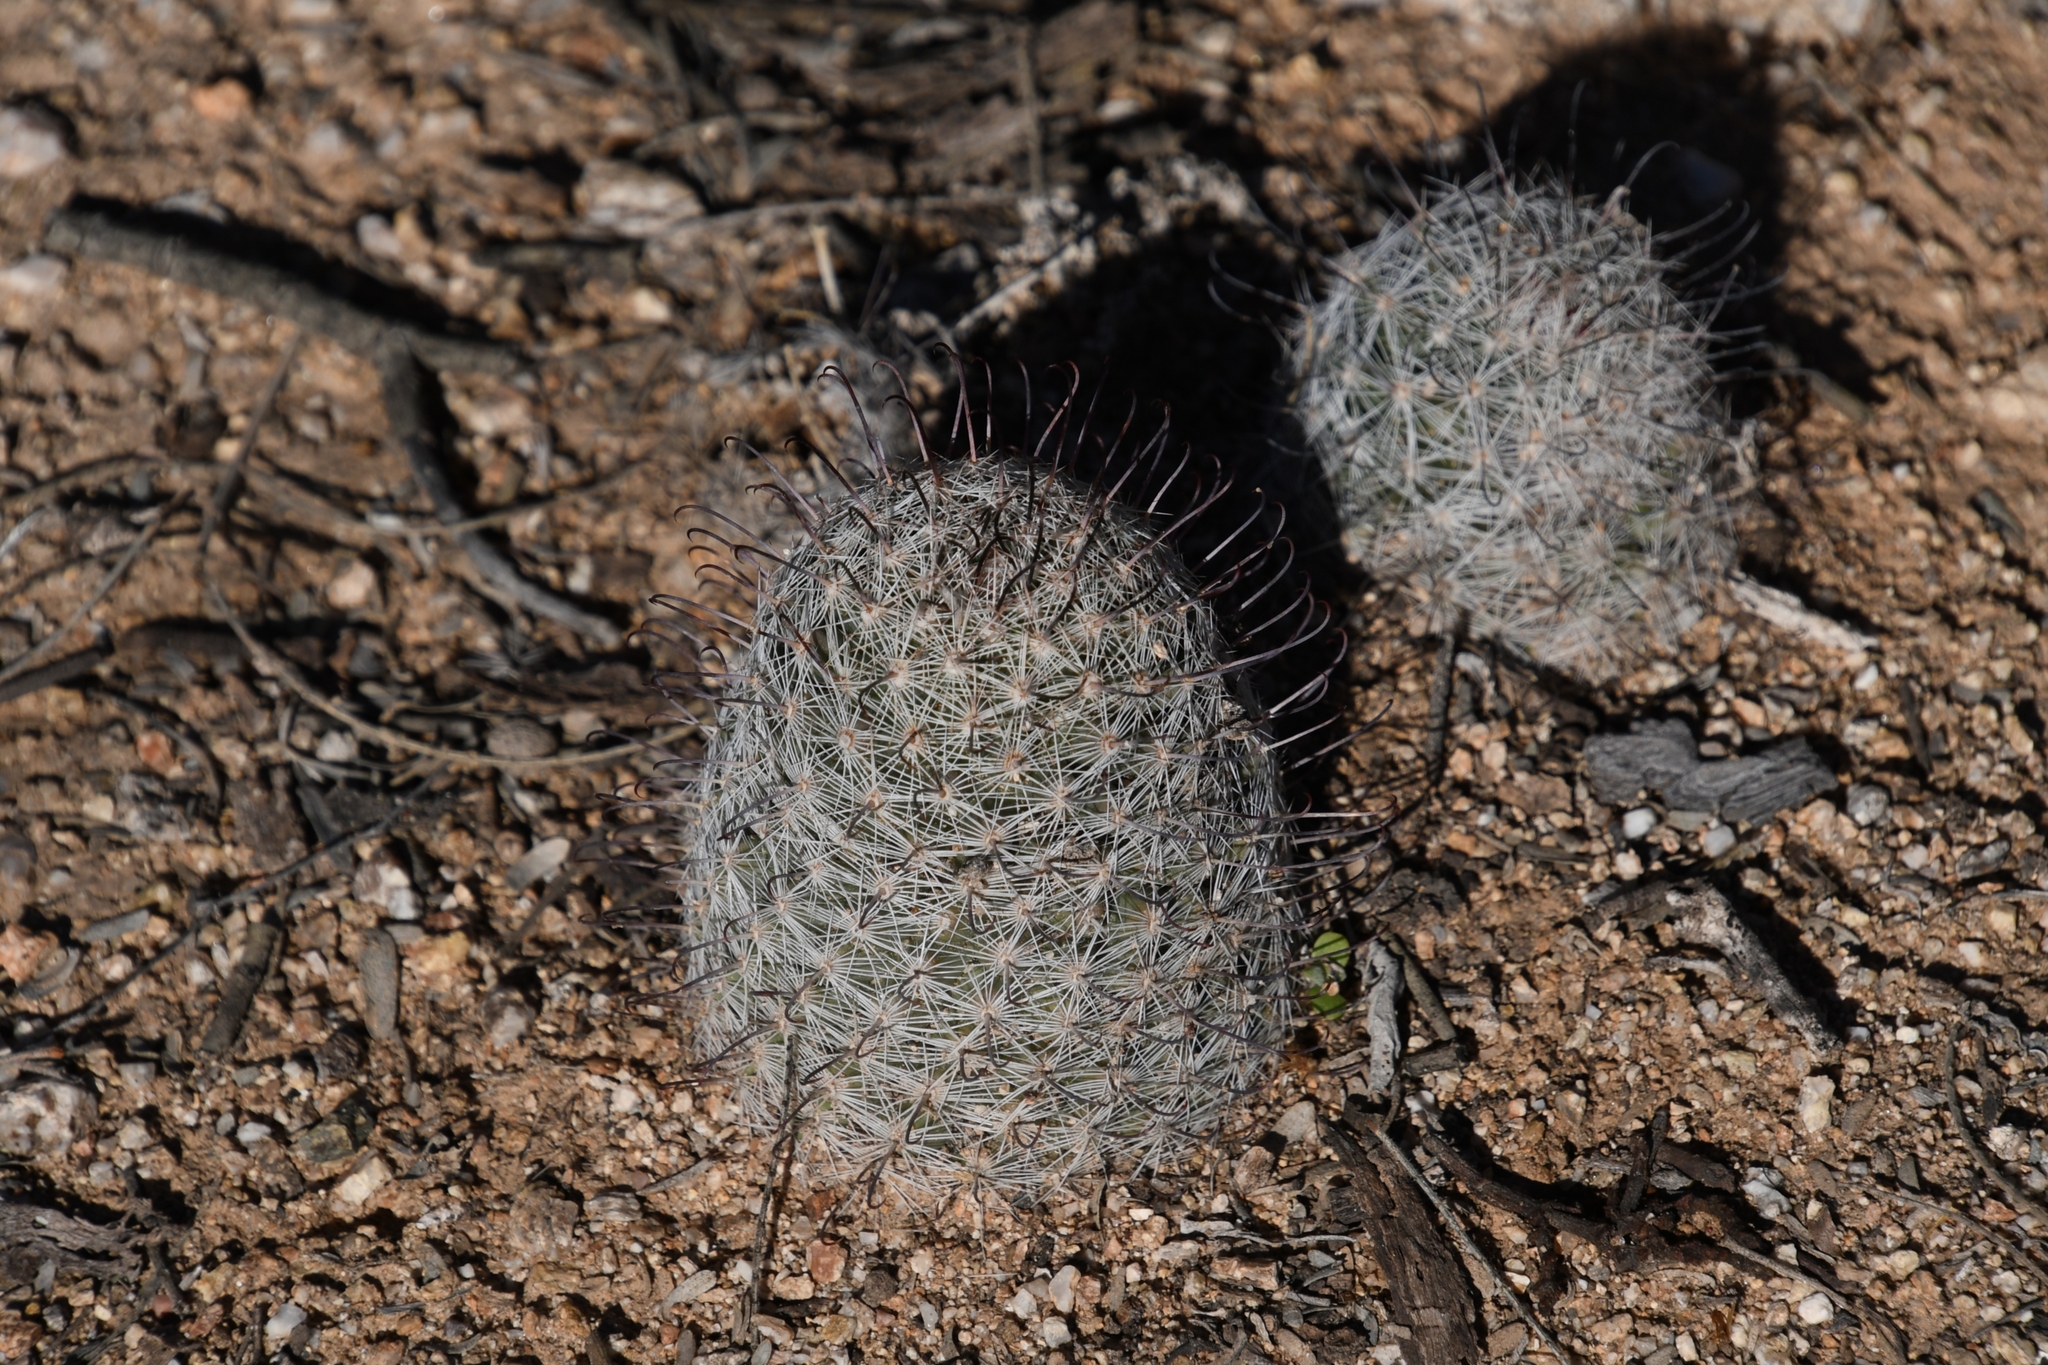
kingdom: Plantae
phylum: Tracheophyta
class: Magnoliopsida
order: Caryophyllales
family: Cactaceae
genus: Cochemiea
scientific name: Cochemiea grahamii
